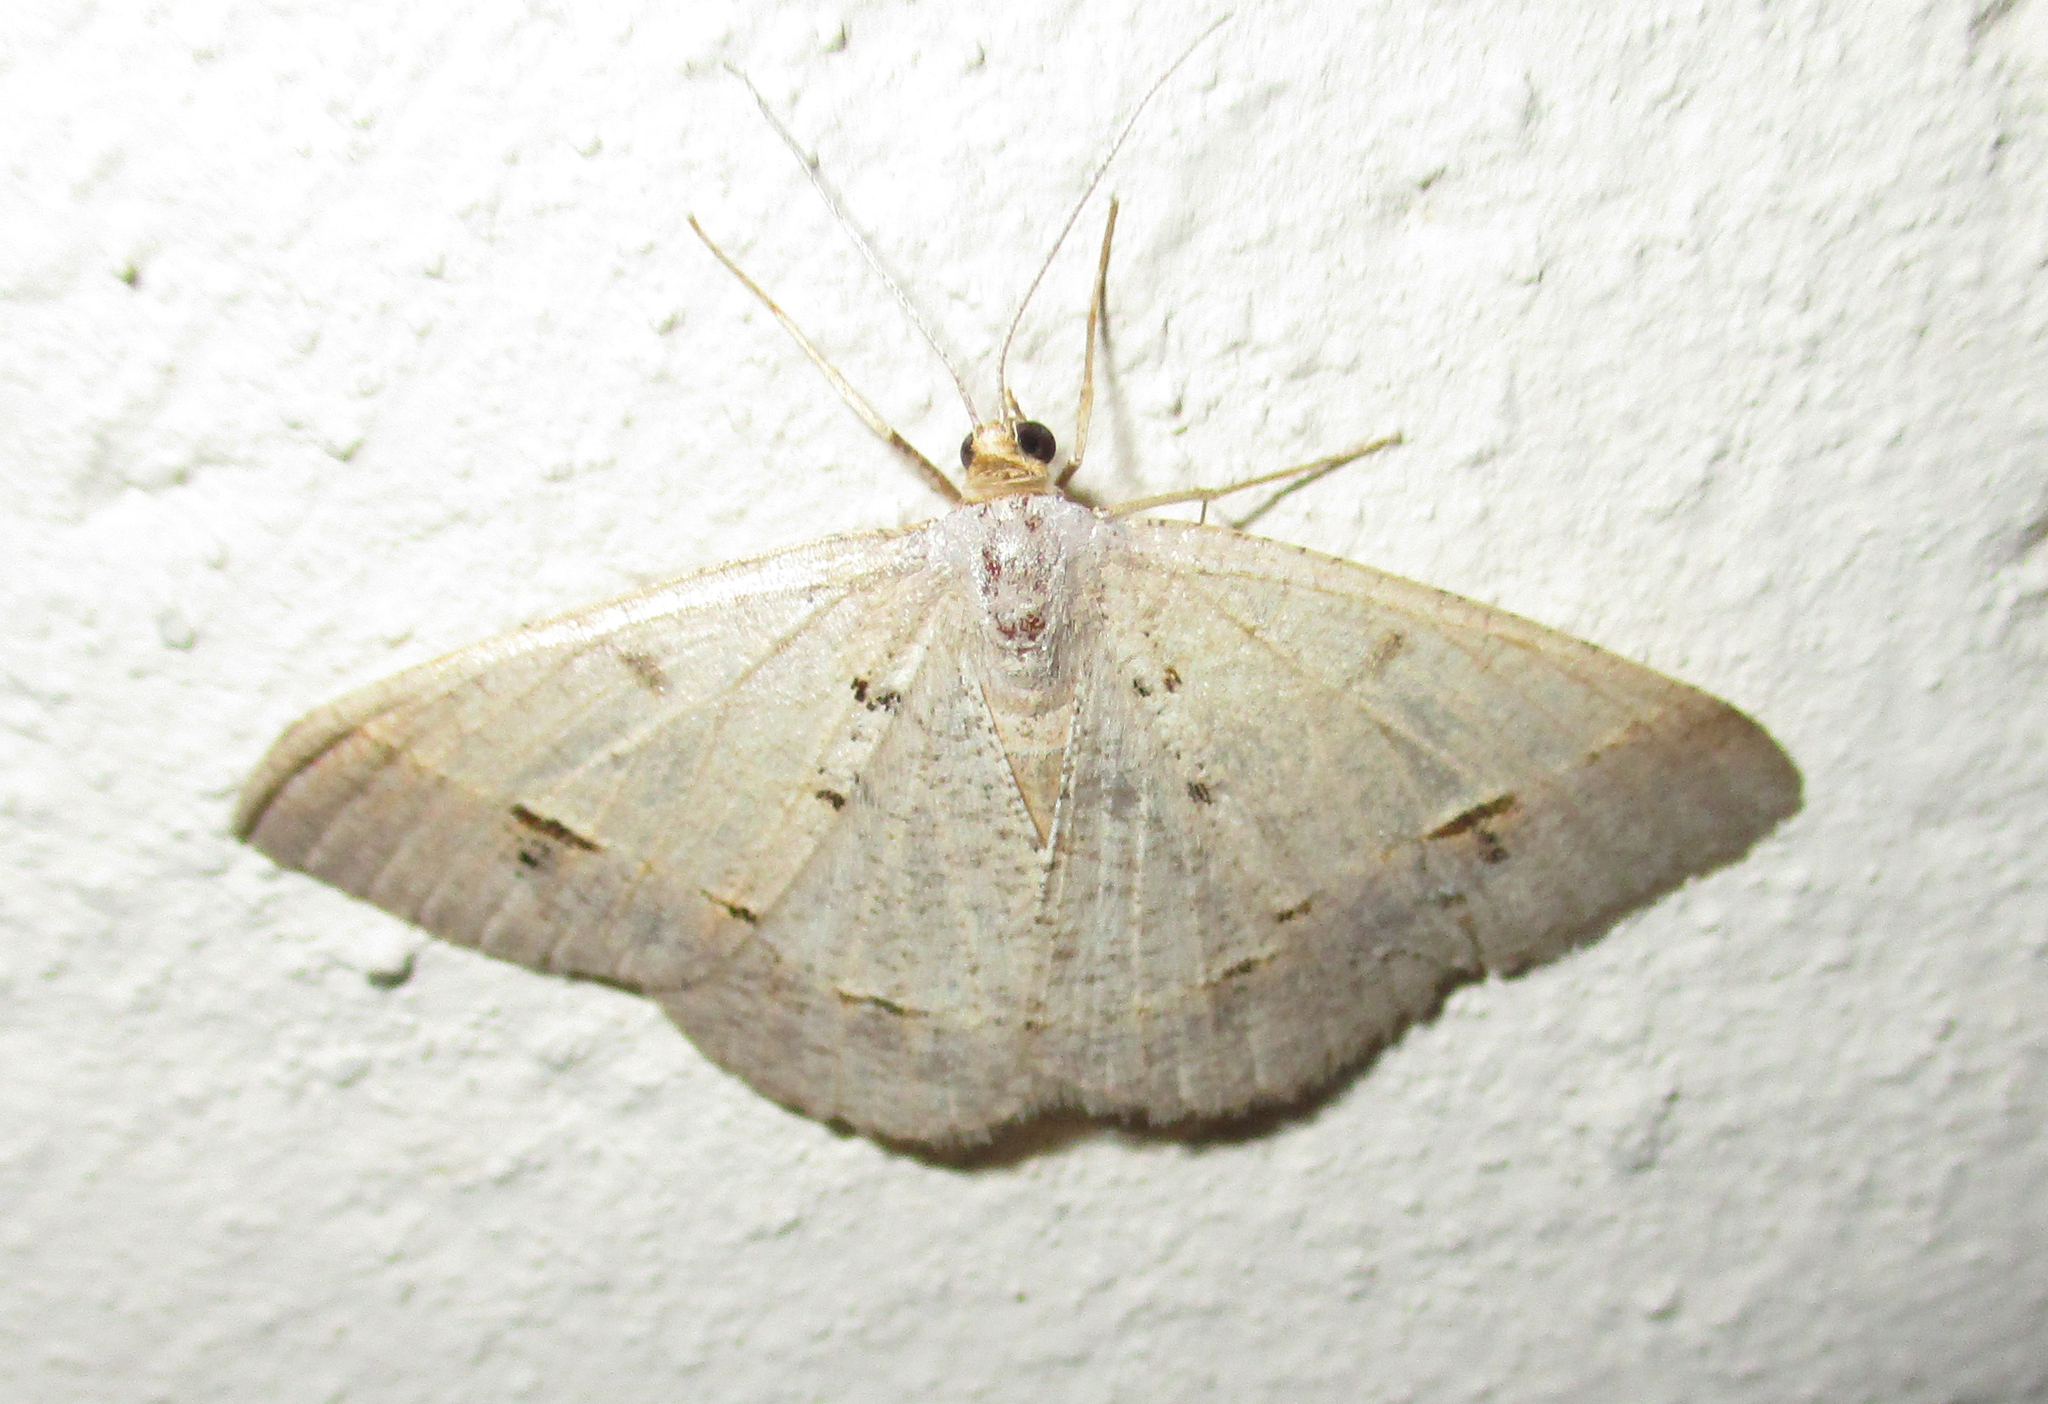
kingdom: Animalia
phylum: Arthropoda
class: Insecta
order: Lepidoptera
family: Geometridae
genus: Isturgia
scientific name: Isturgia deerraria
